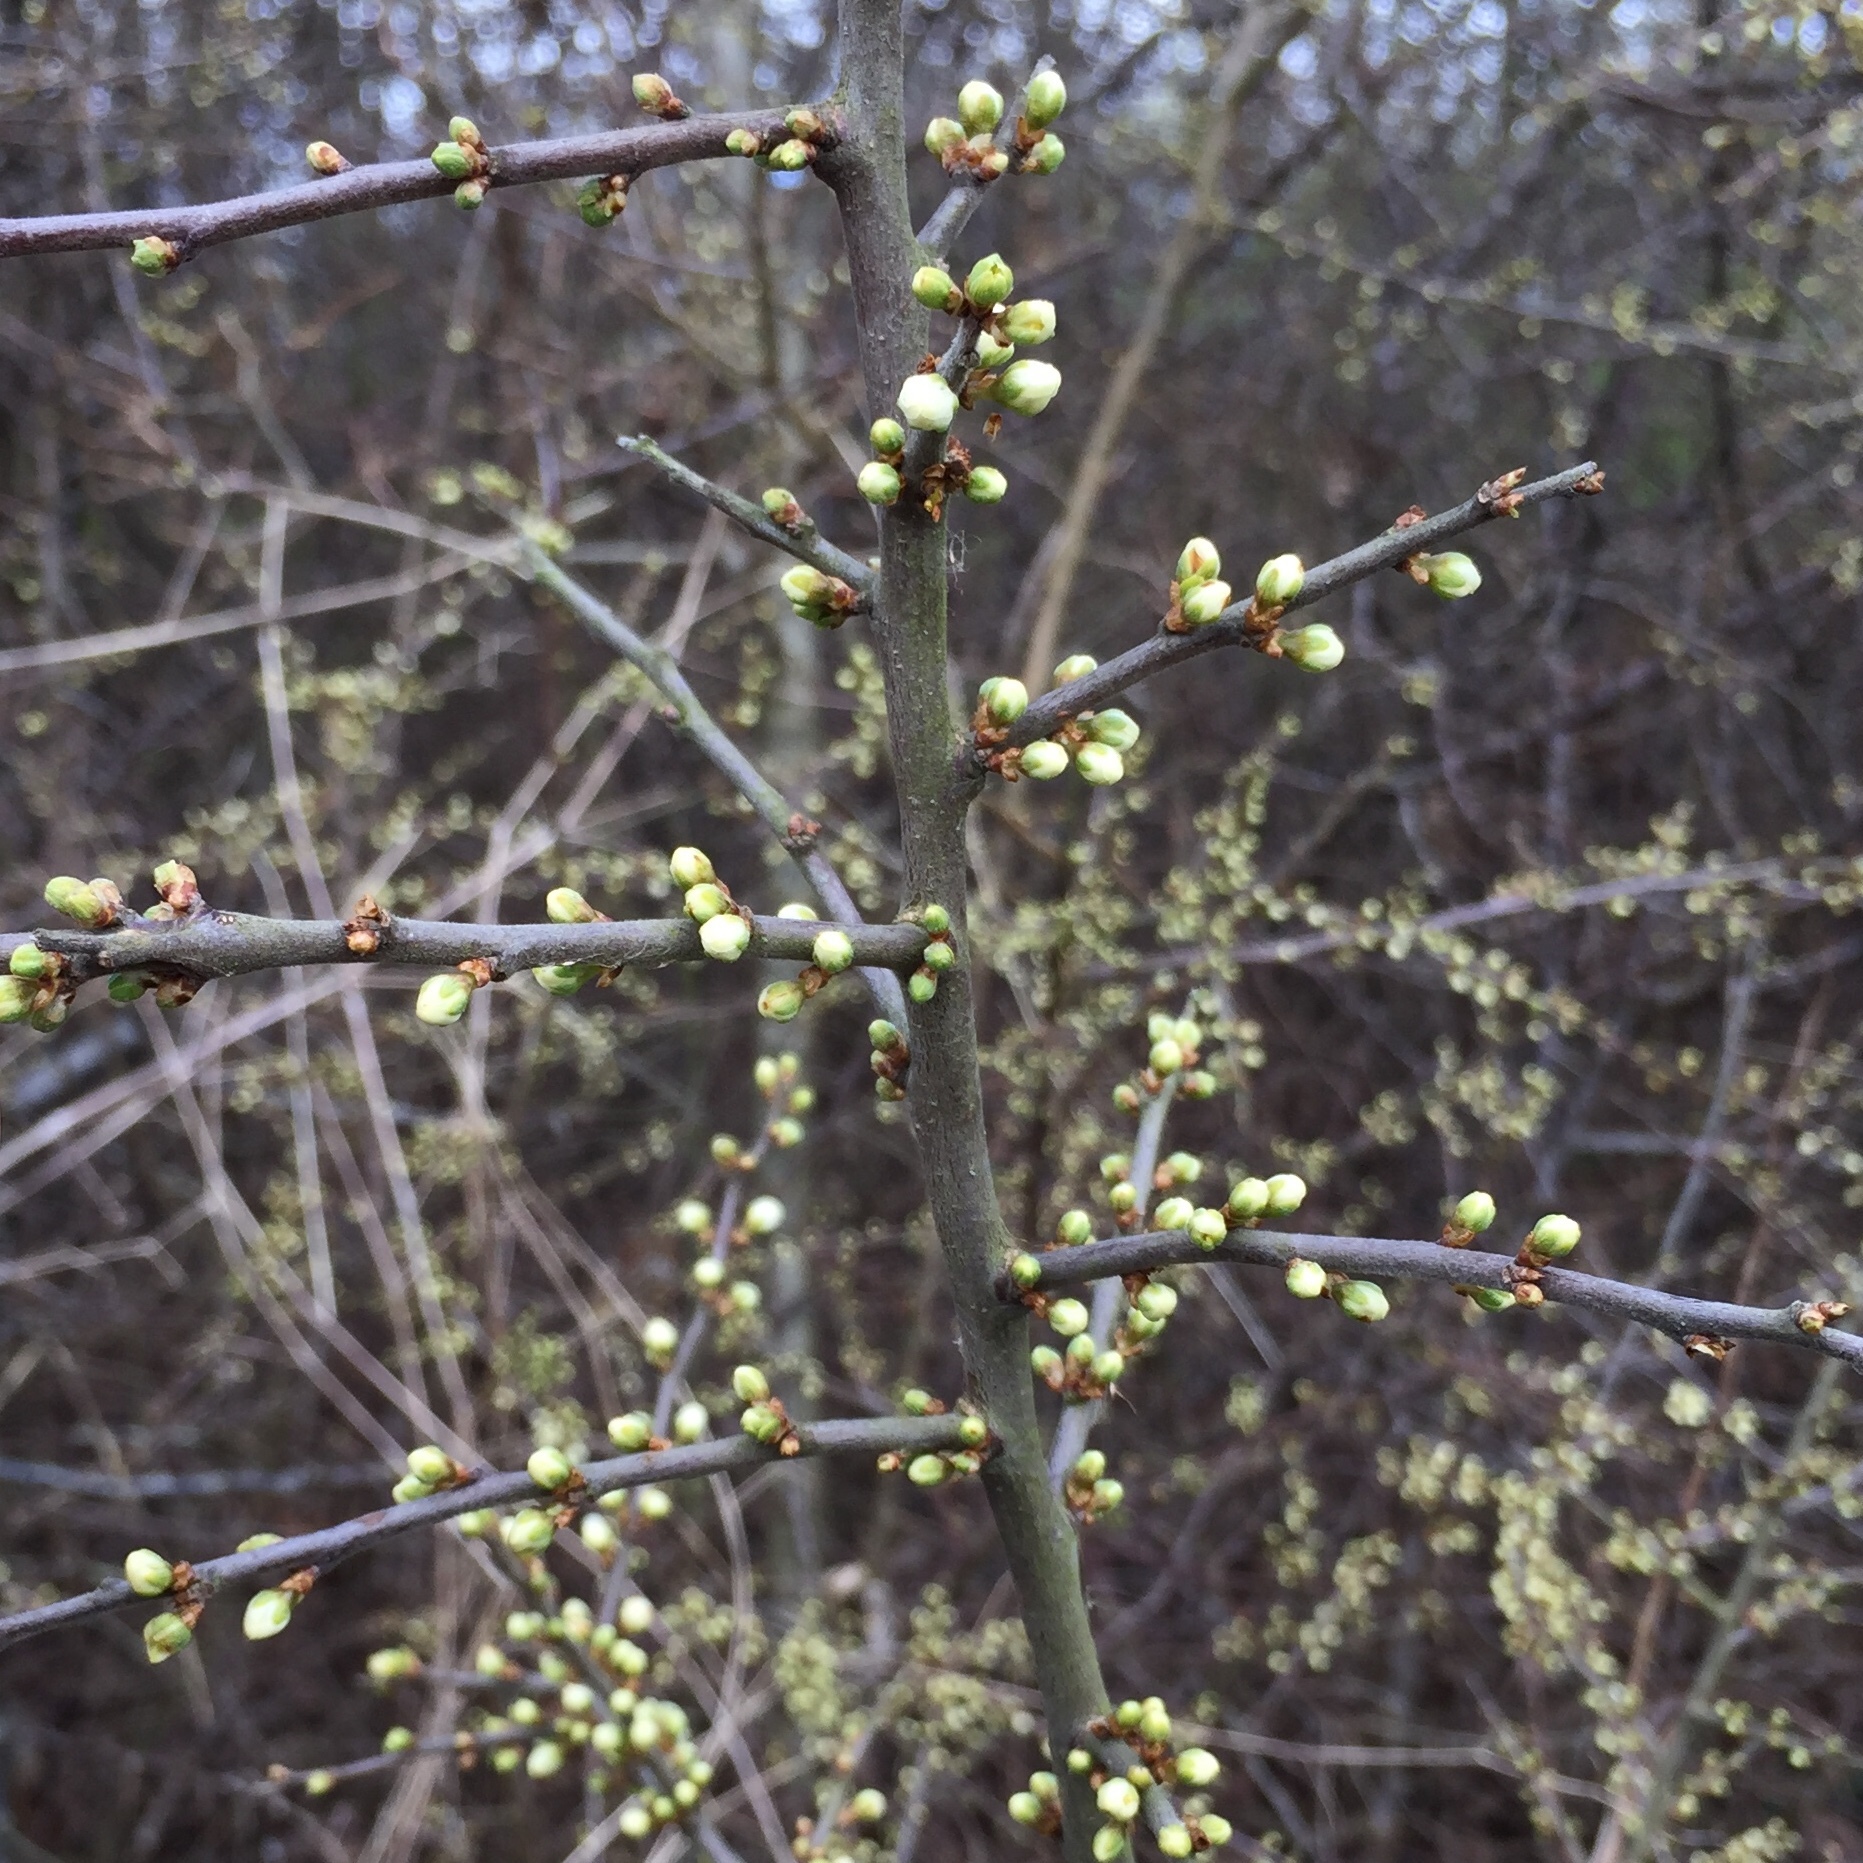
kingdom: Plantae
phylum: Tracheophyta
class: Magnoliopsida
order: Rosales
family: Rosaceae
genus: Prunus
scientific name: Prunus spinosa
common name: Blackthorn
